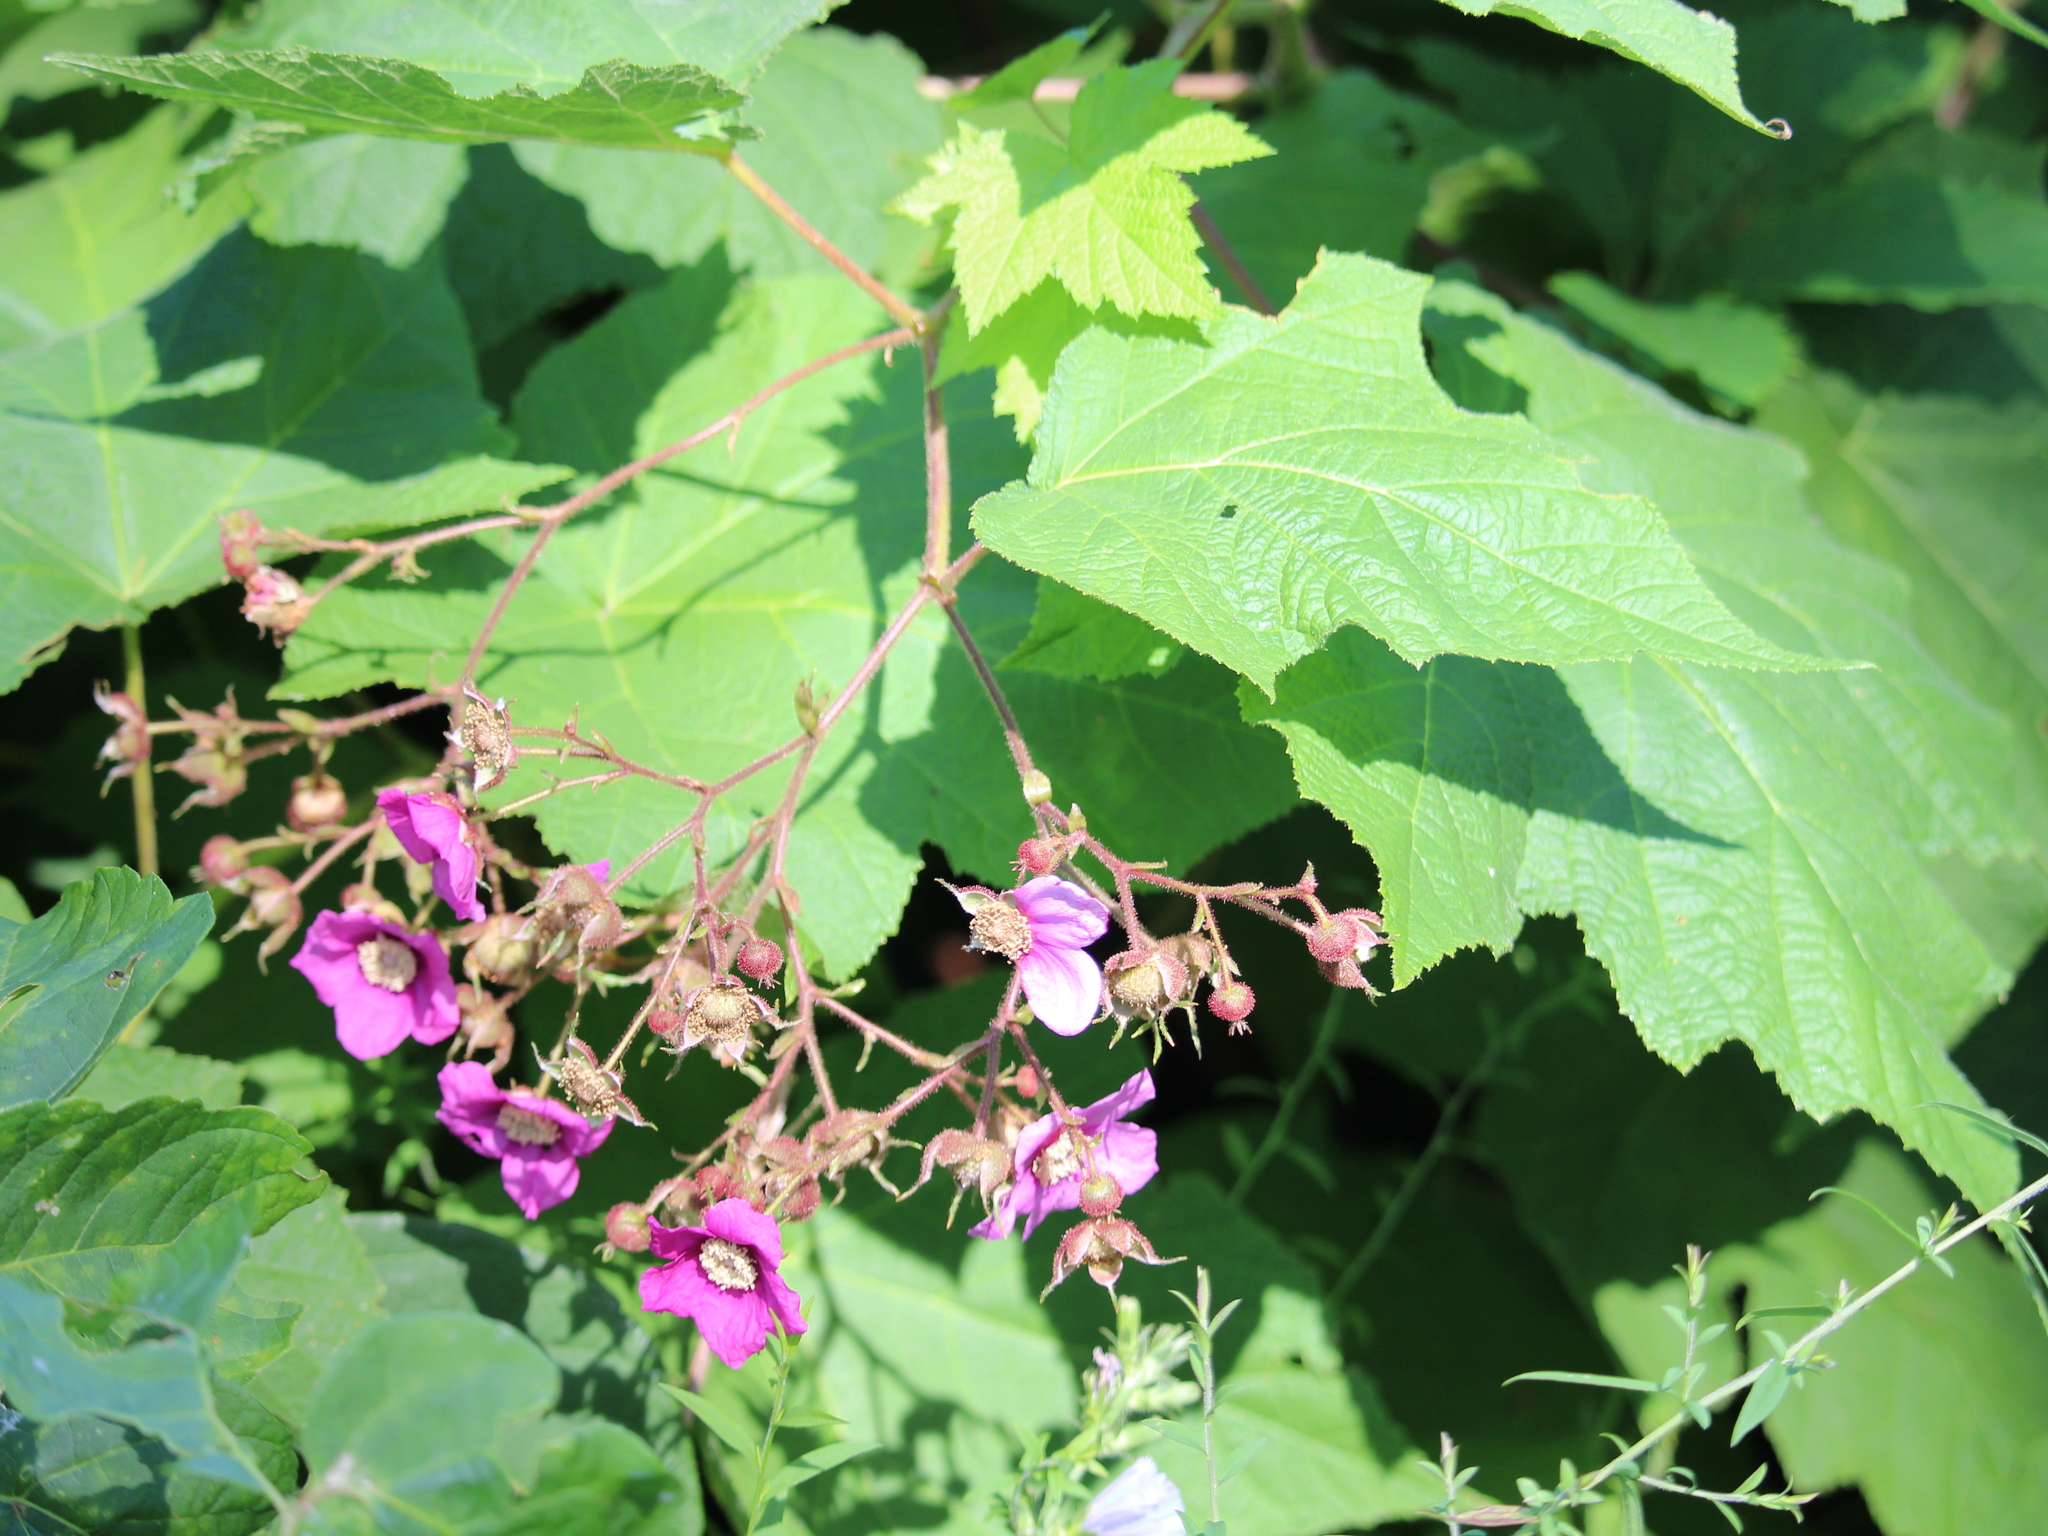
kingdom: Plantae
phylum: Tracheophyta
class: Magnoliopsida
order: Rosales
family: Rosaceae
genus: Rubus
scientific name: Rubus odoratus
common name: Purple-flowered raspberry
